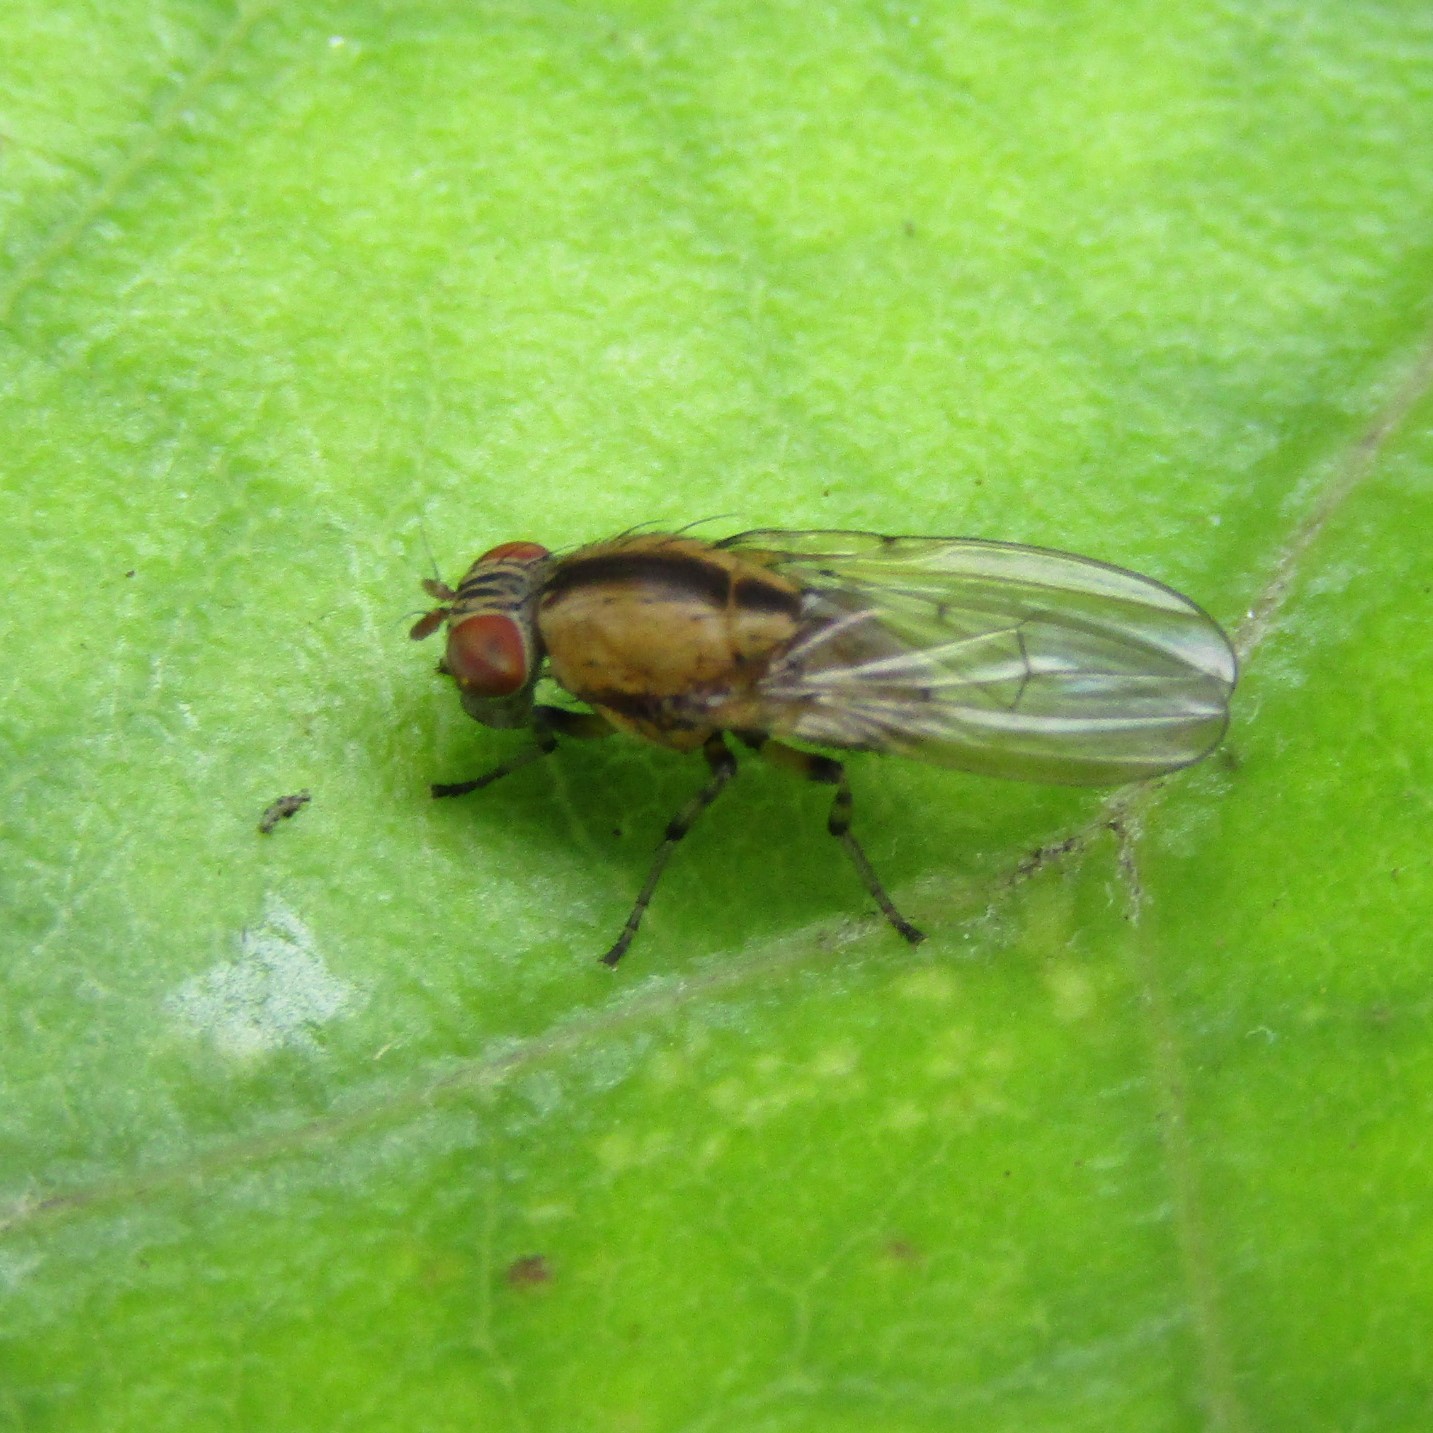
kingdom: Animalia
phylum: Arthropoda
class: Insecta
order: Diptera
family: Lauxaniidae
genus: Sapromyza
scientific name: Sapromyza neozelandica
